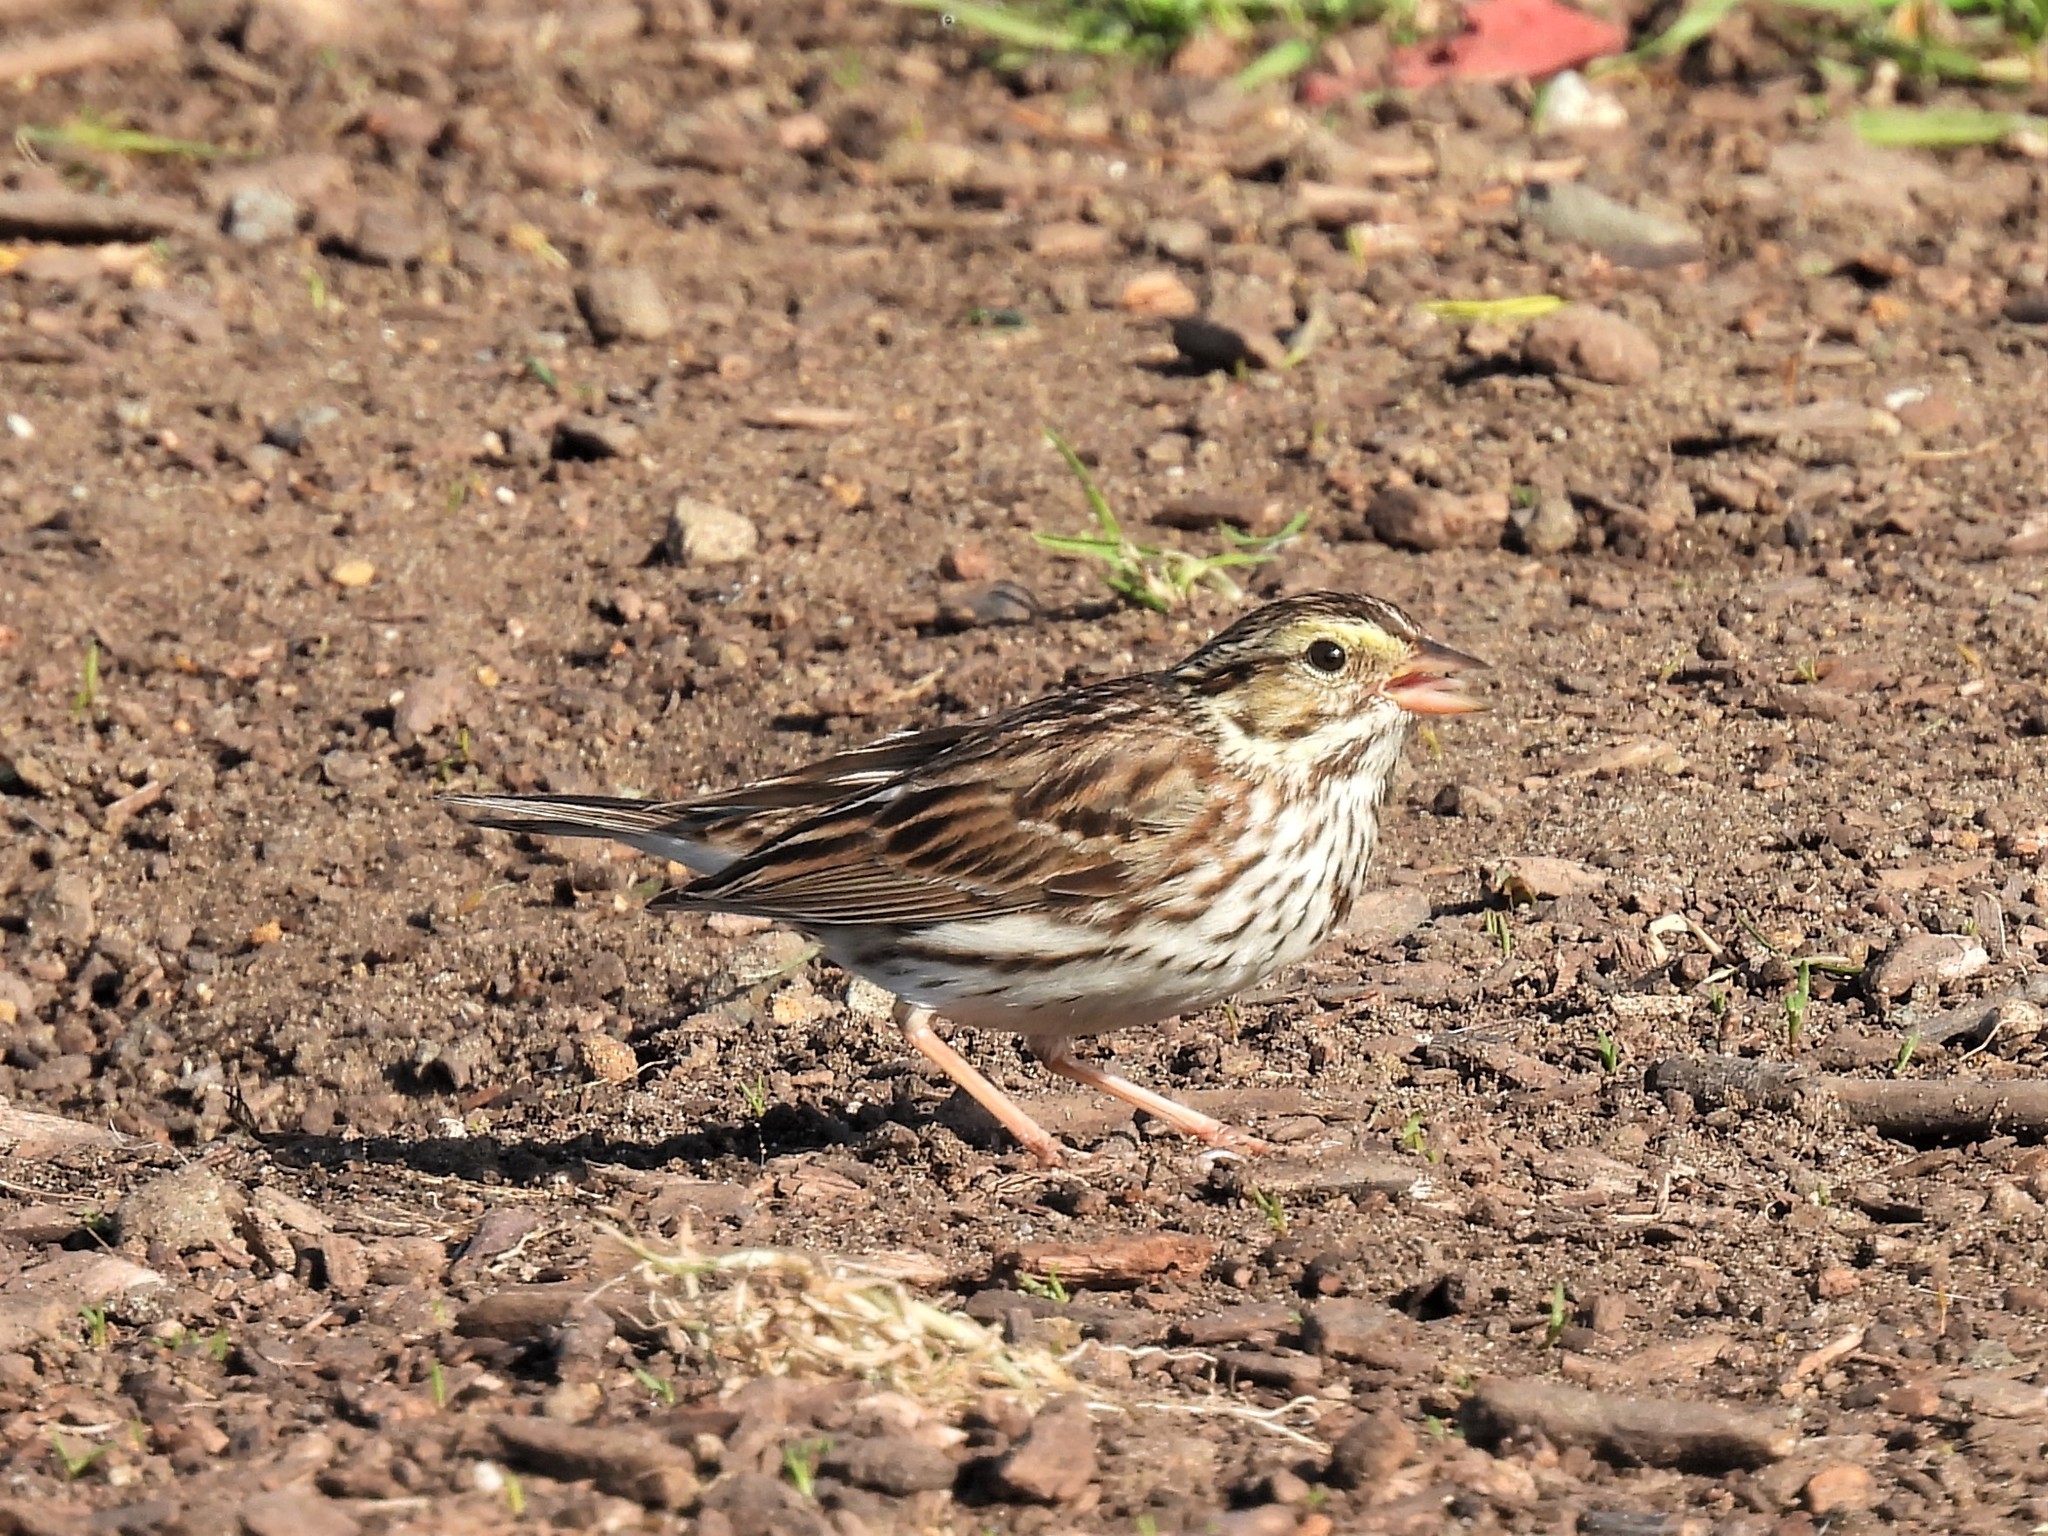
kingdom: Animalia
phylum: Chordata
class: Aves
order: Passeriformes
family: Passerellidae
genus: Passerculus
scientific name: Passerculus sandwichensis
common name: Savannah sparrow
